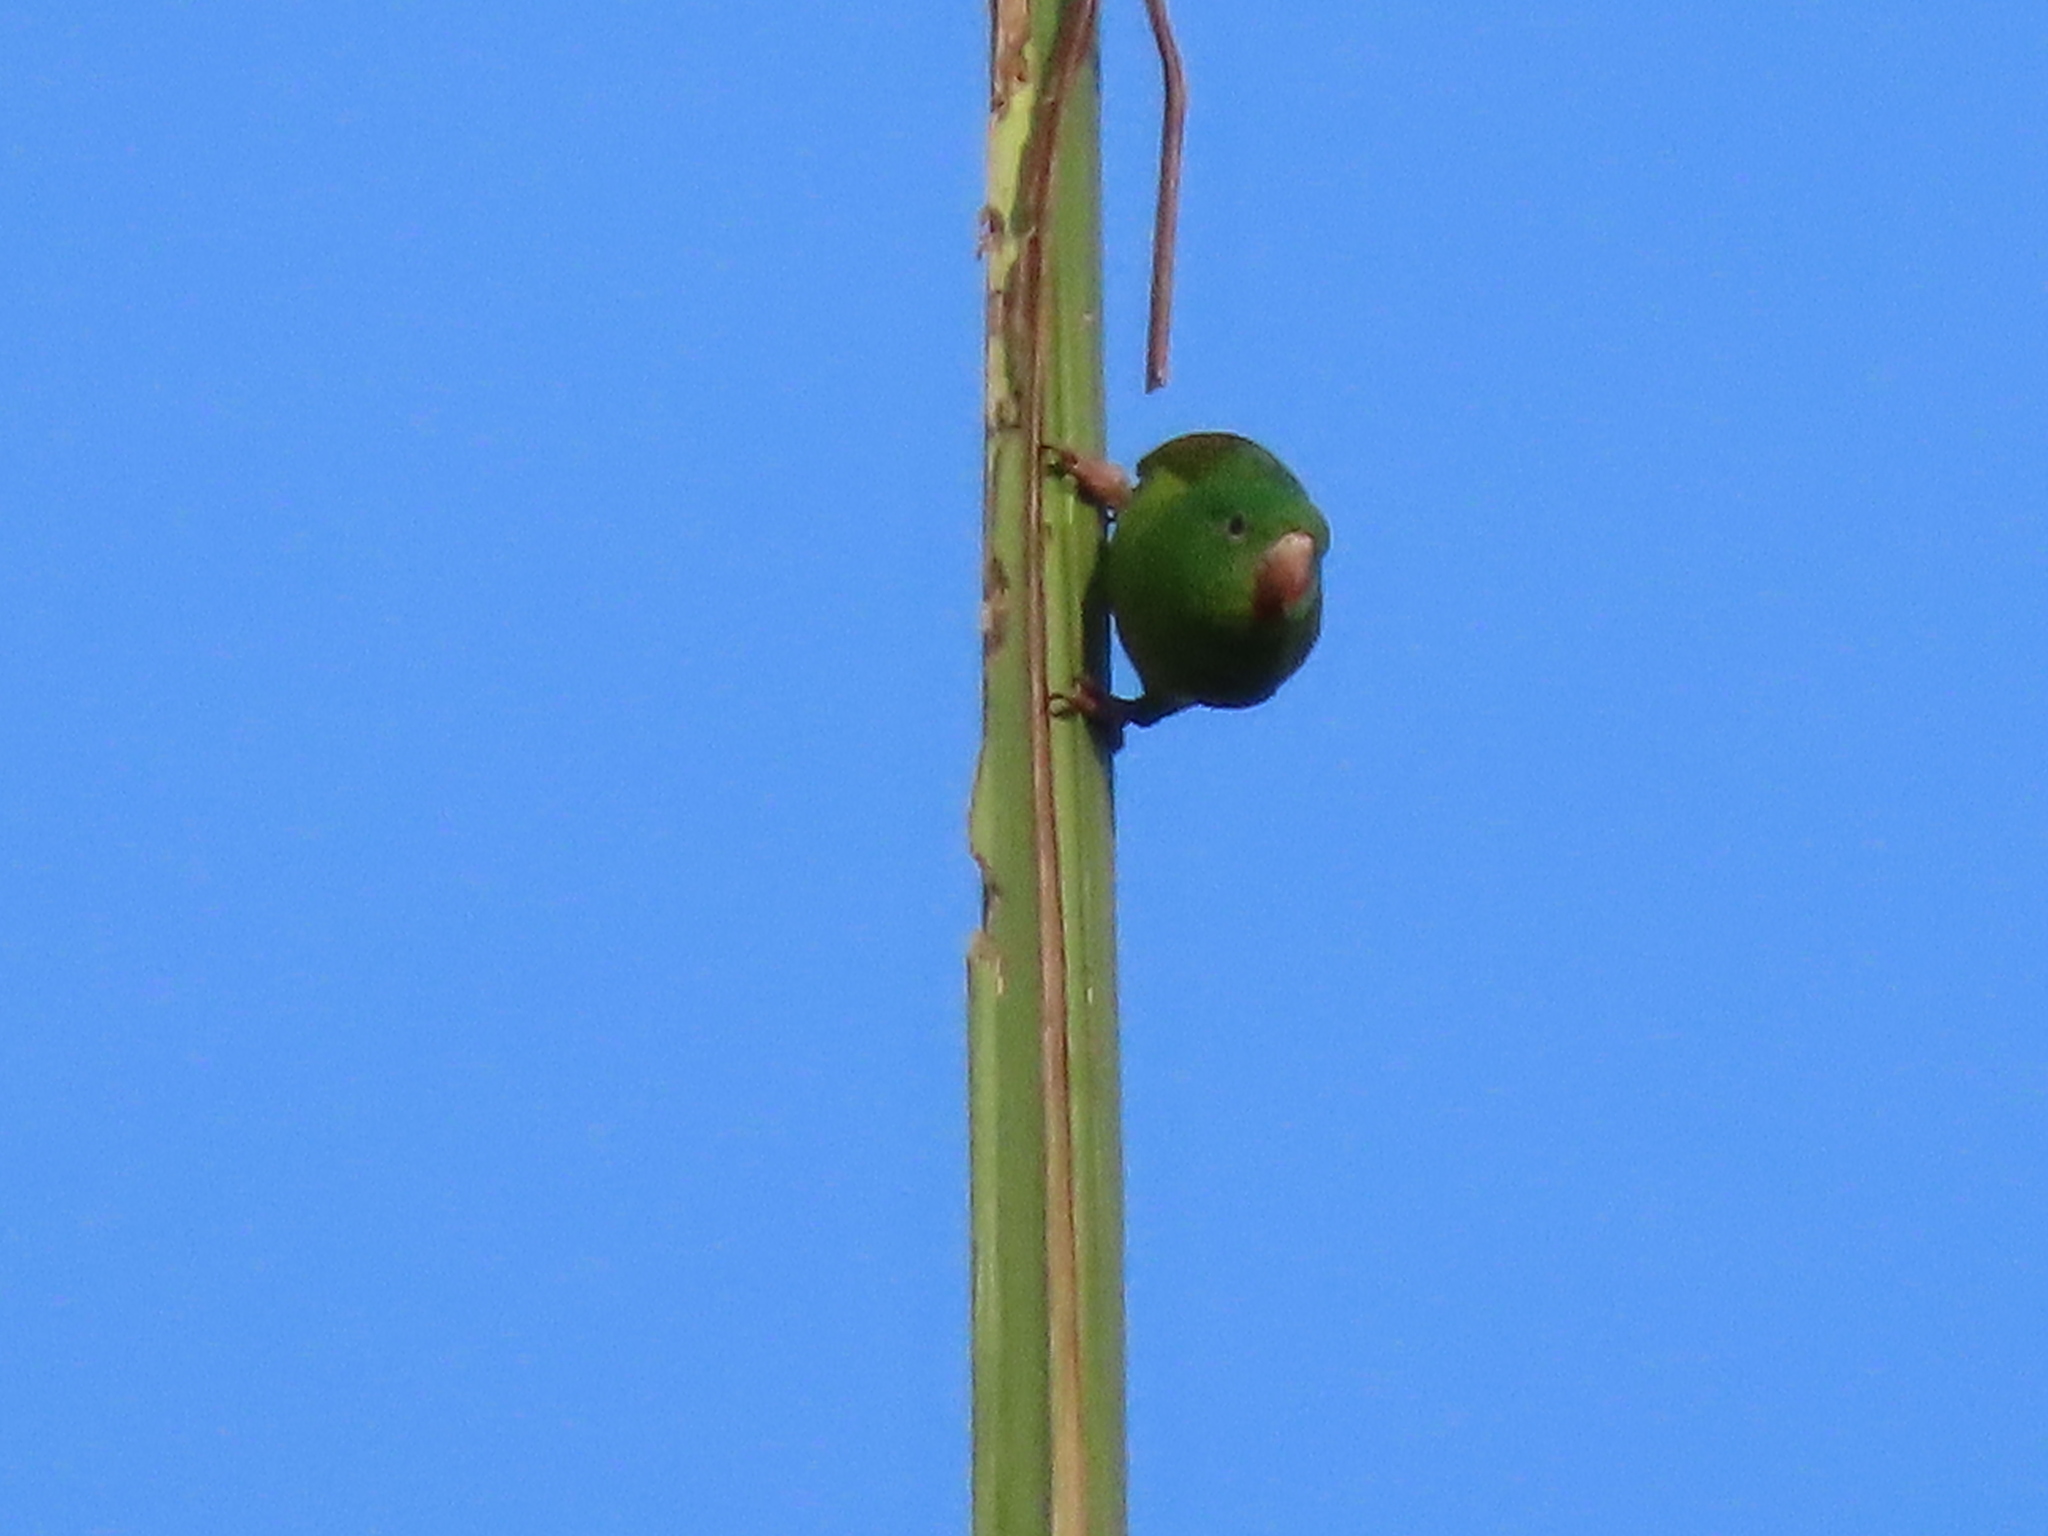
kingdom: Animalia
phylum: Chordata
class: Aves
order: Psittaciformes
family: Psittacidae
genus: Brotogeris
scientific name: Brotogeris jugularis
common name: Orange-chinned parakeet
